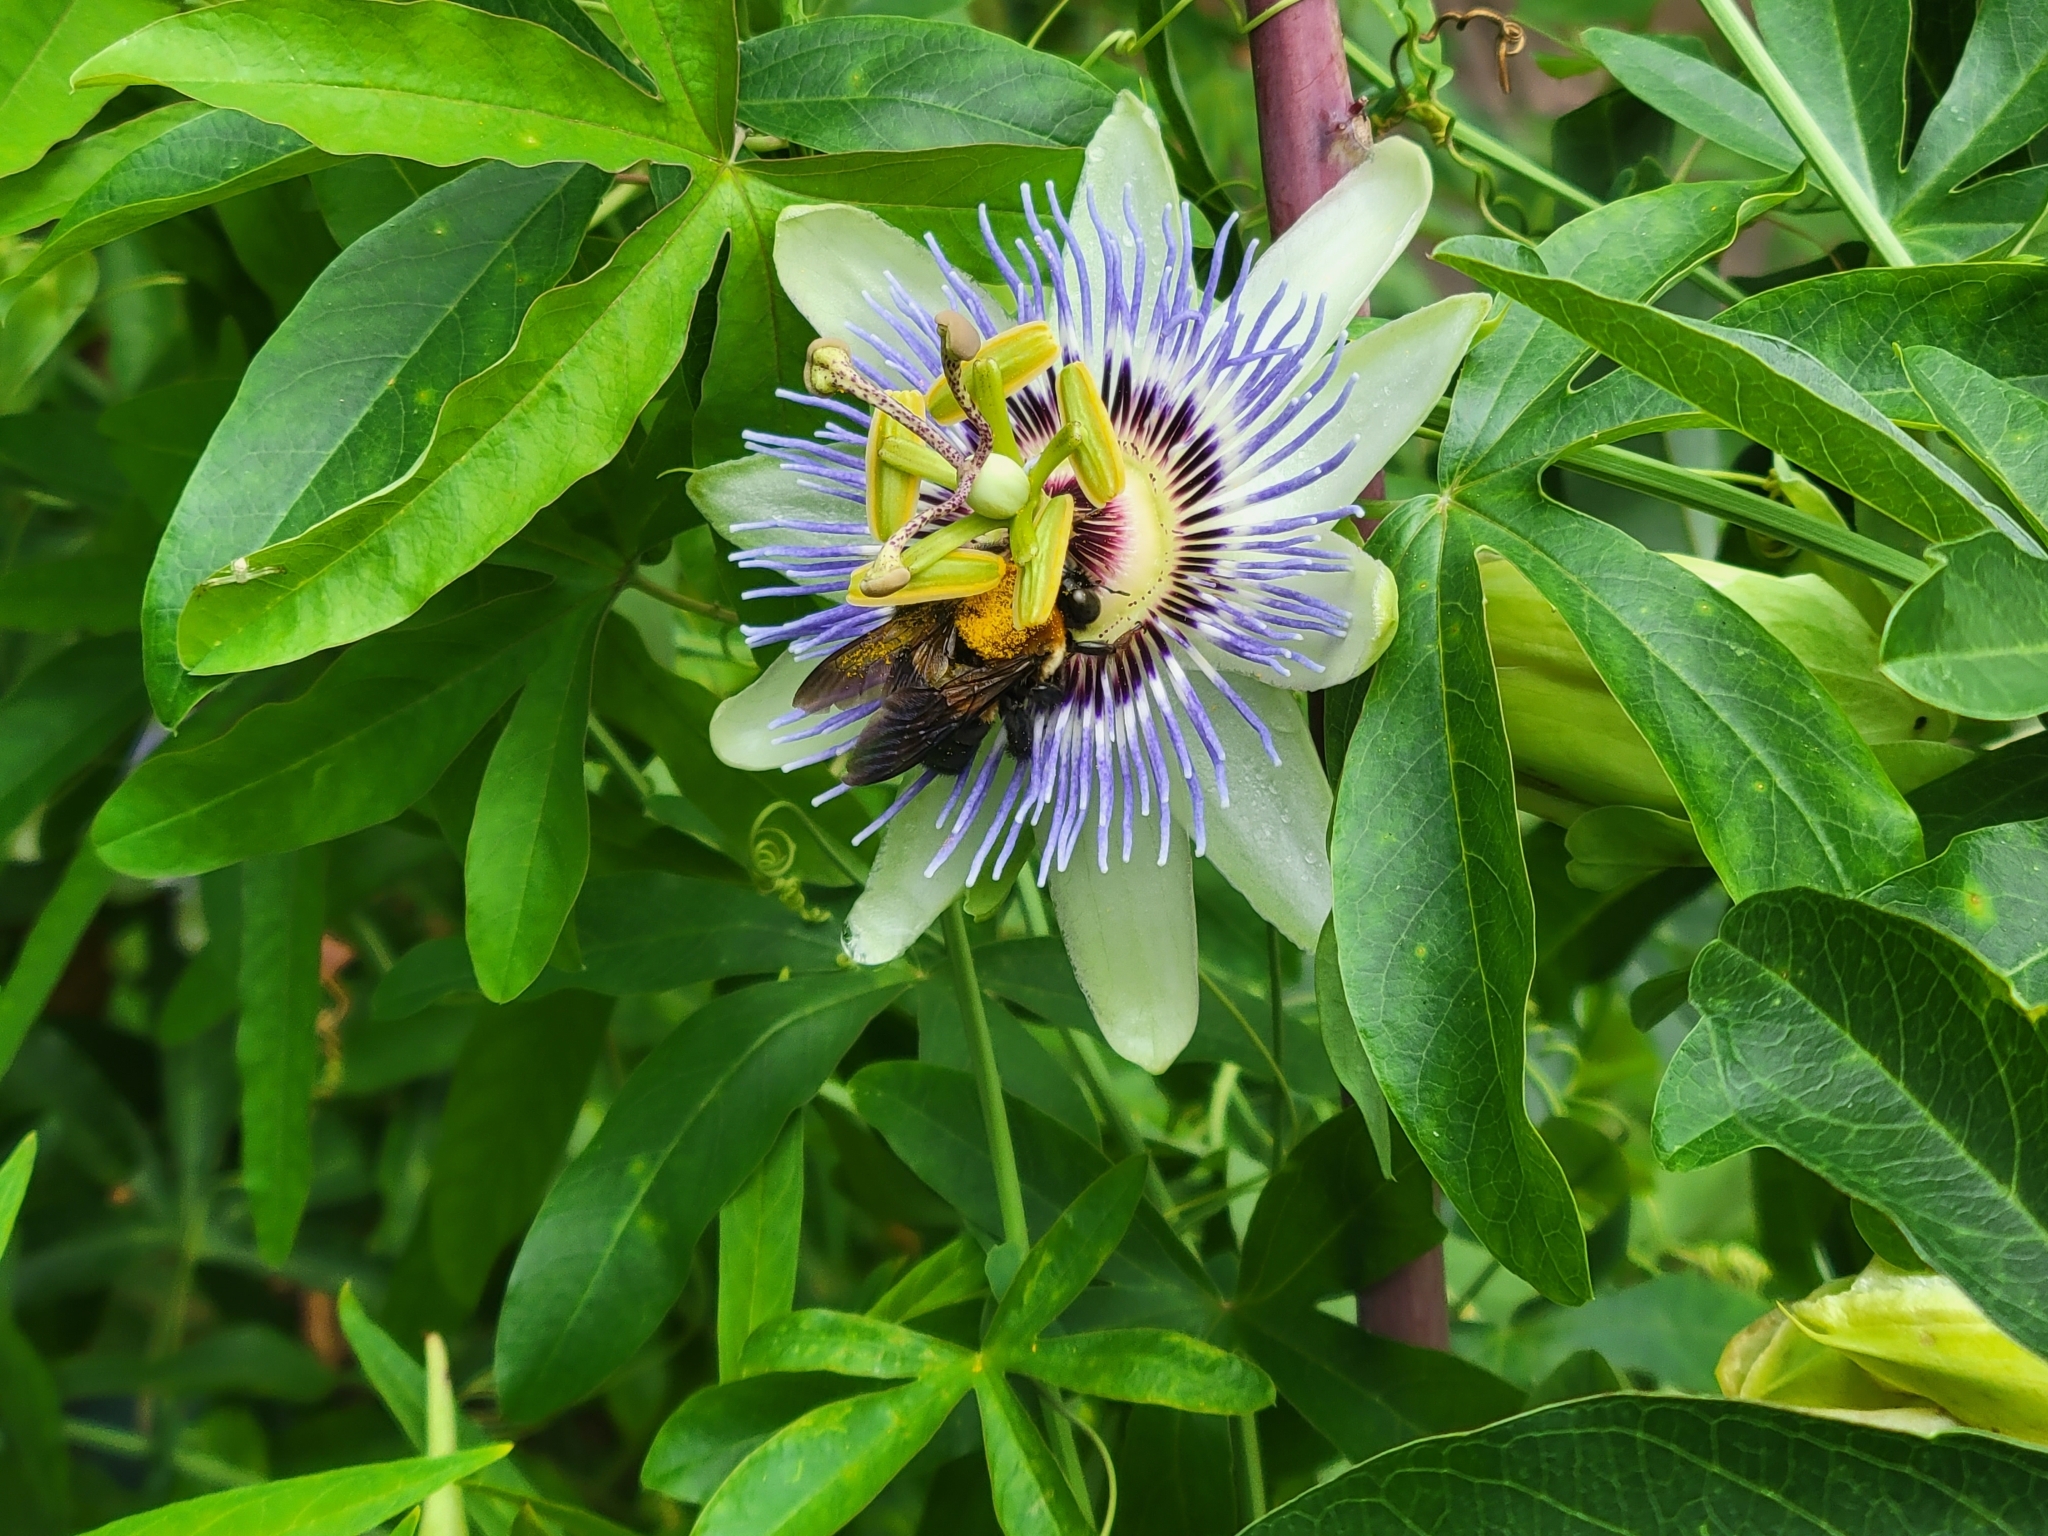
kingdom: Animalia
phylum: Arthropoda
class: Insecta
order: Hymenoptera
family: Apidae
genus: Xylocopa
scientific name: Xylocopa virginica
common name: Carpenter bee
